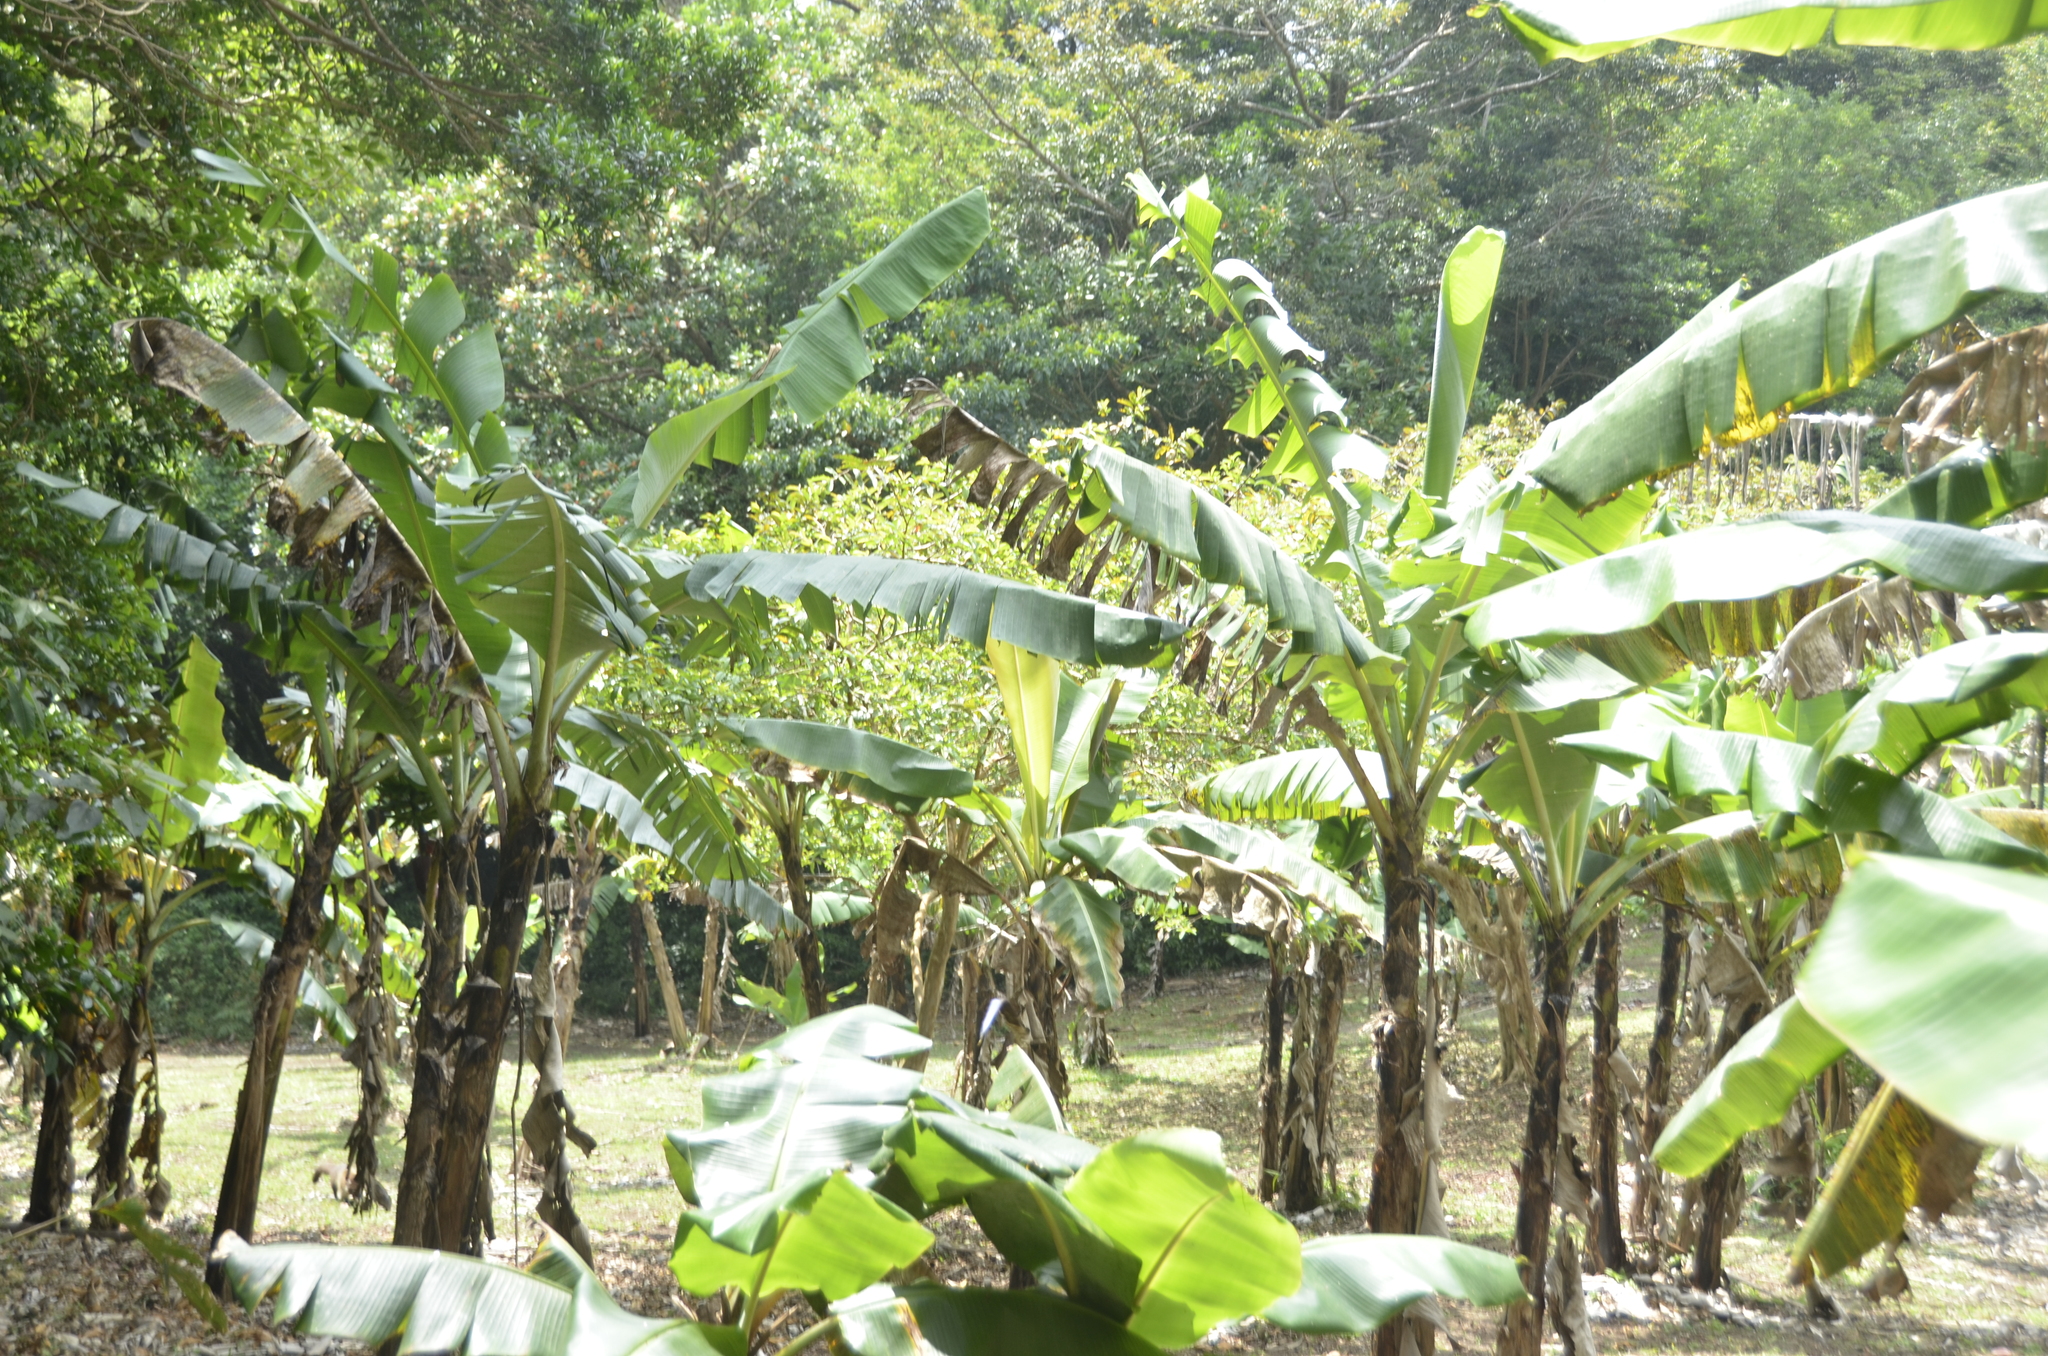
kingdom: Plantae
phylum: Tracheophyta
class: Liliopsida
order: Zingiberales
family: Musaceae
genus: Musa
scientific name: Musa acuminata
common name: Edible banana
